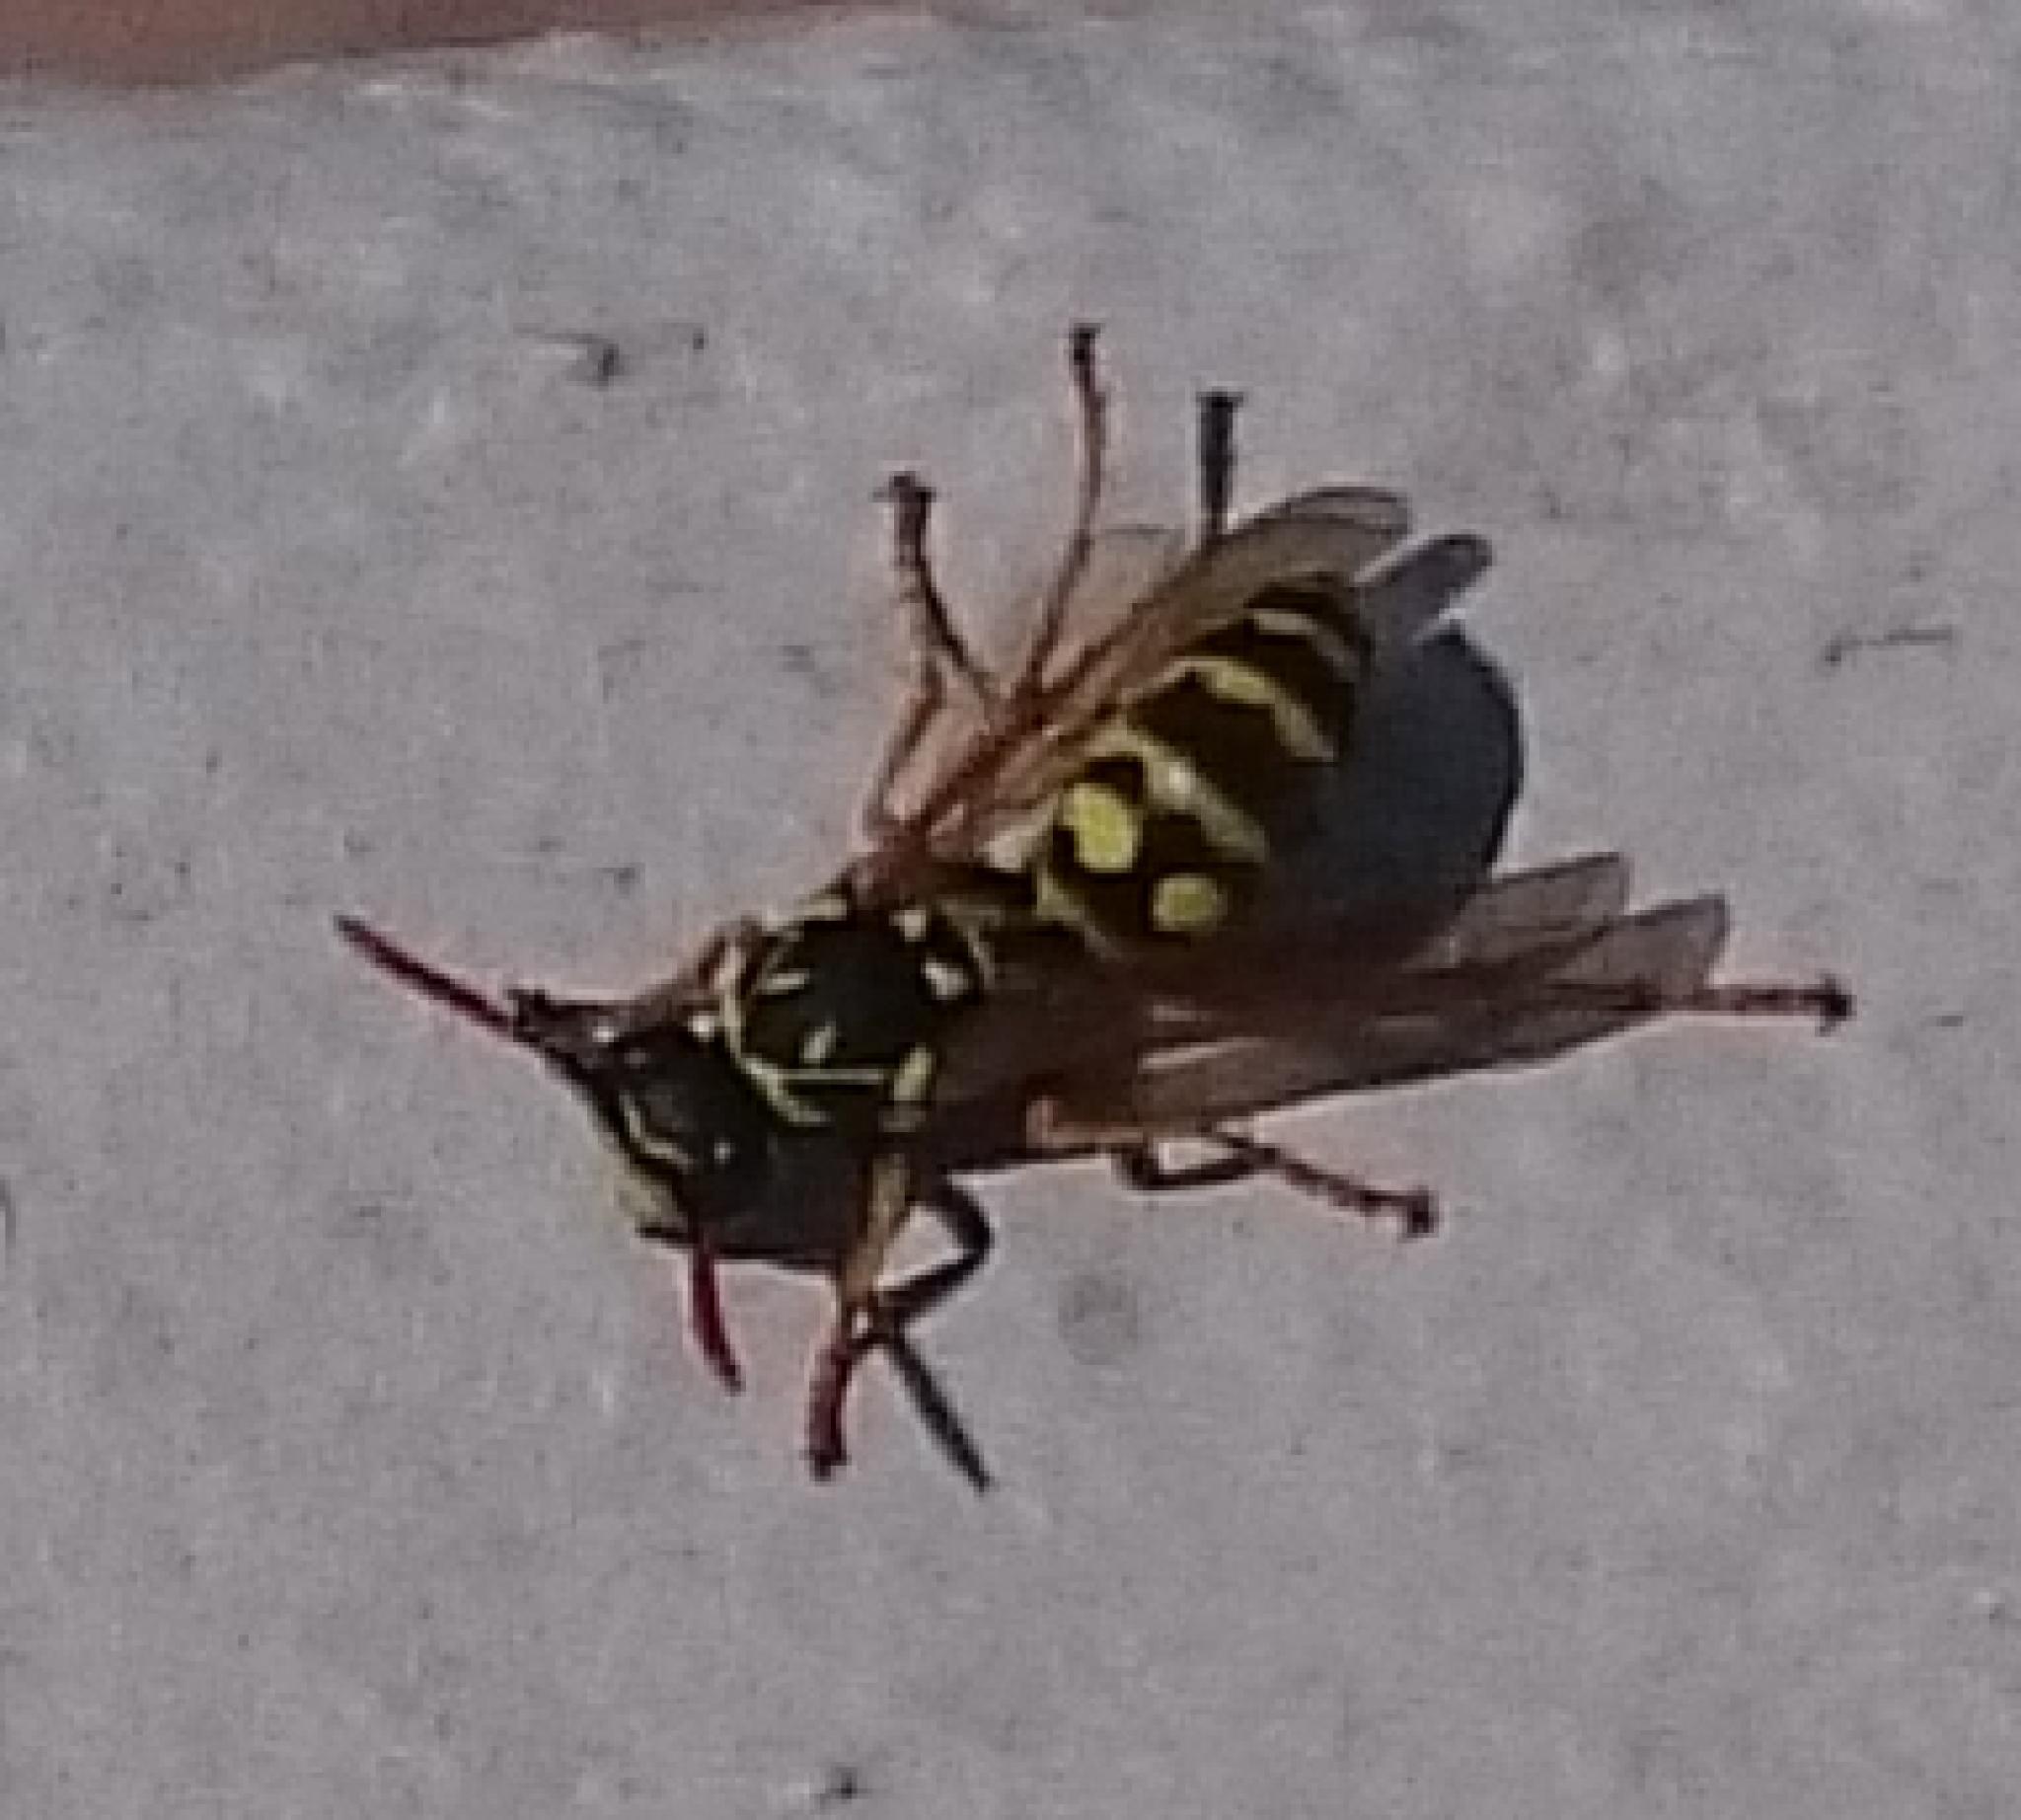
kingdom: Animalia
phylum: Arthropoda
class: Insecta
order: Hymenoptera
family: Eumenidae
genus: Polistes
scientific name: Polistes dominula
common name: Paper wasp
